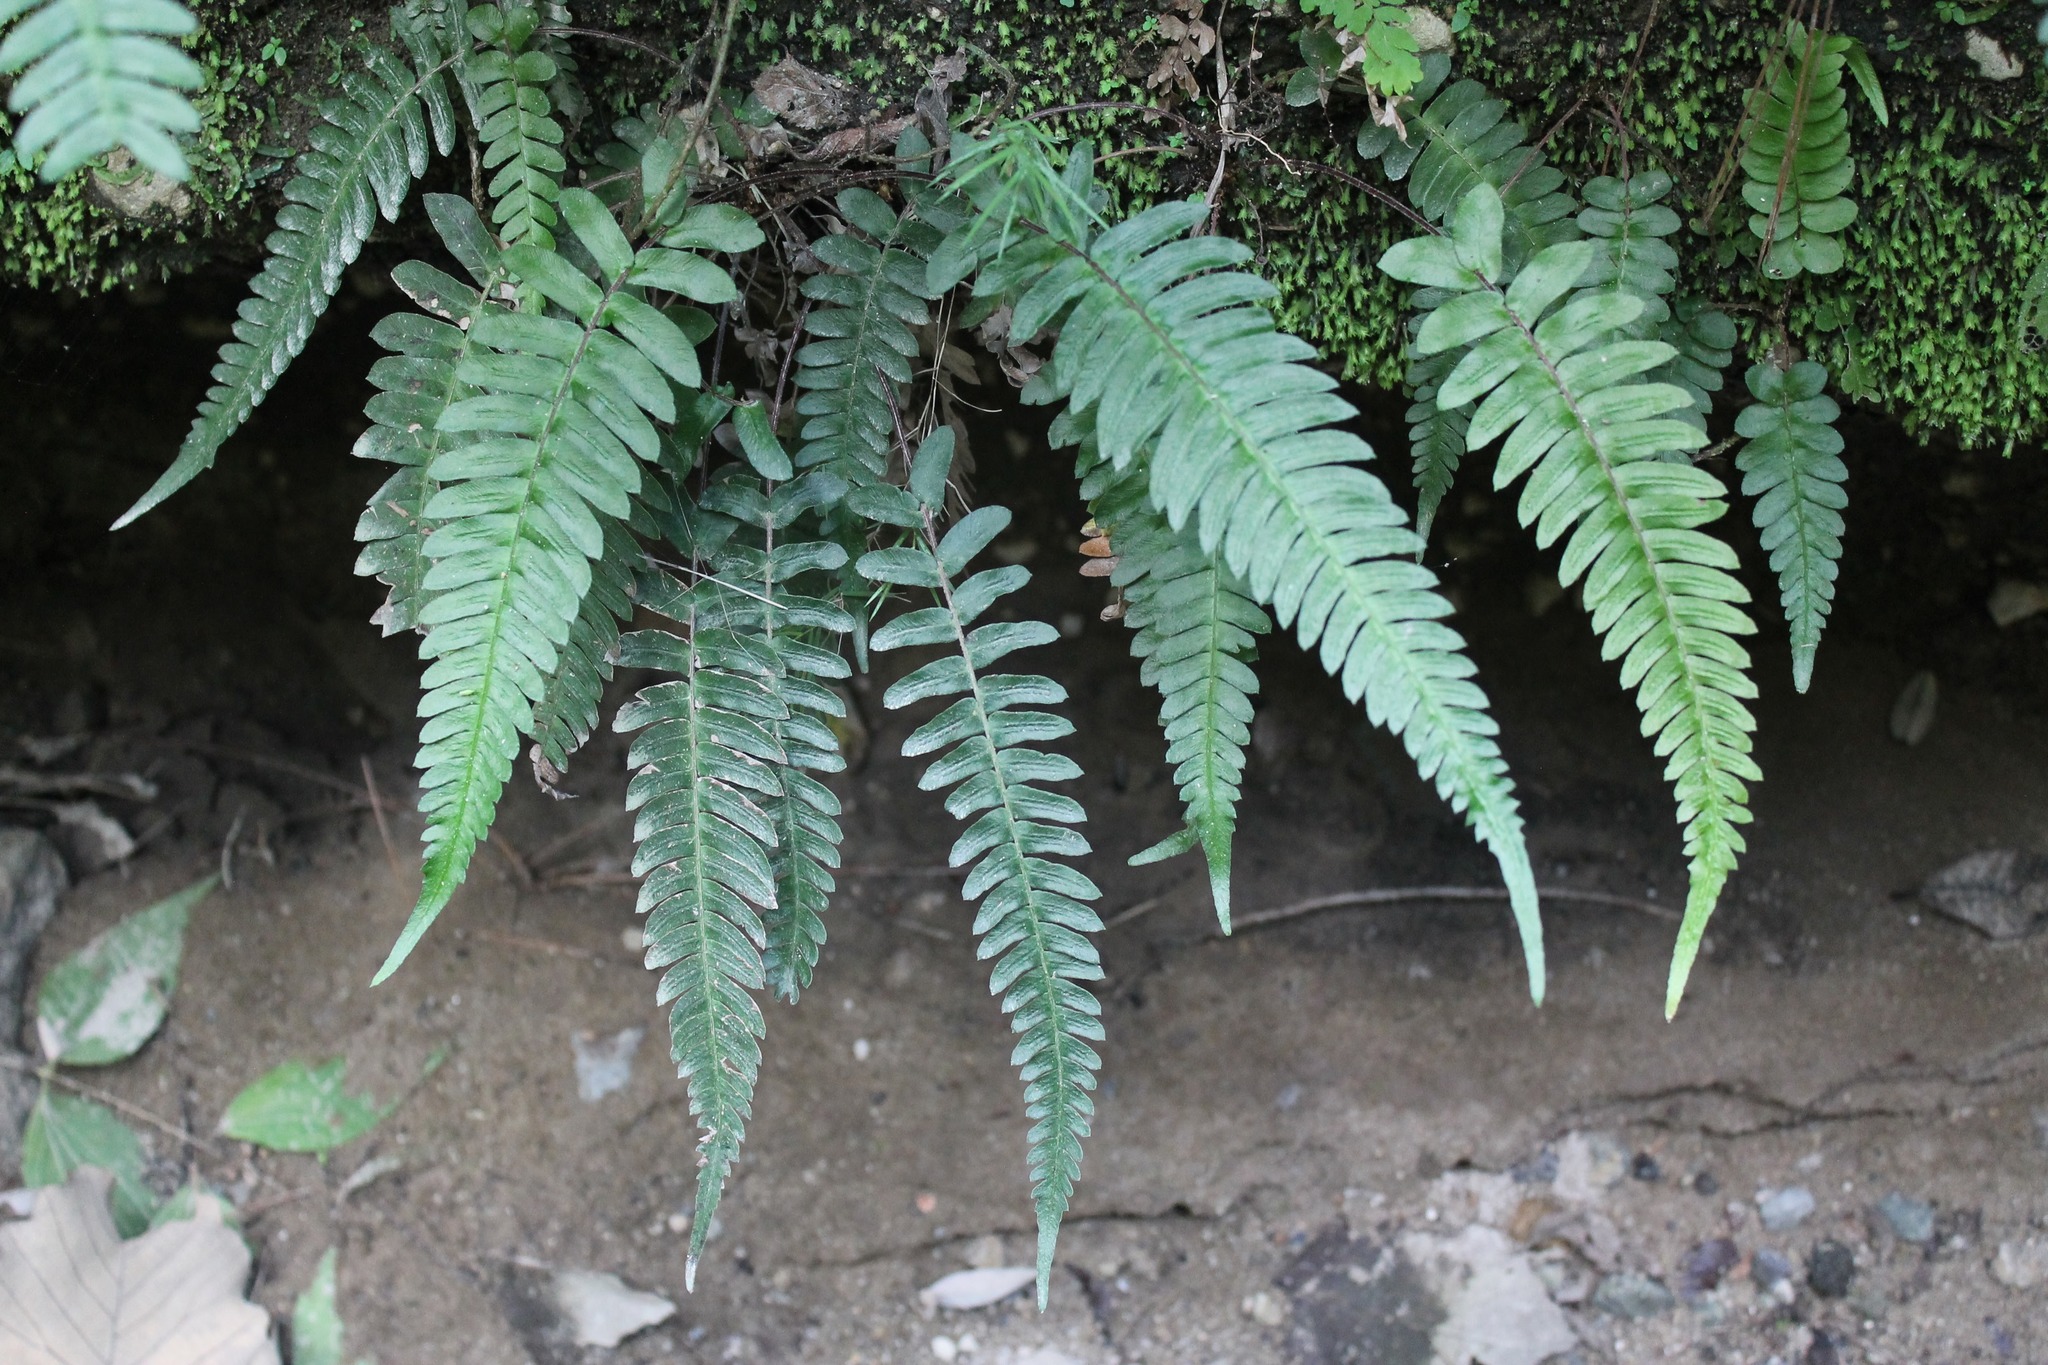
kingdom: Plantae
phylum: Tracheophyta
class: Polypodiopsida
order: Polypodiales
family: Blechnaceae
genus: Blechnum
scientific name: Blechnum occidentale
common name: Hammock fern
